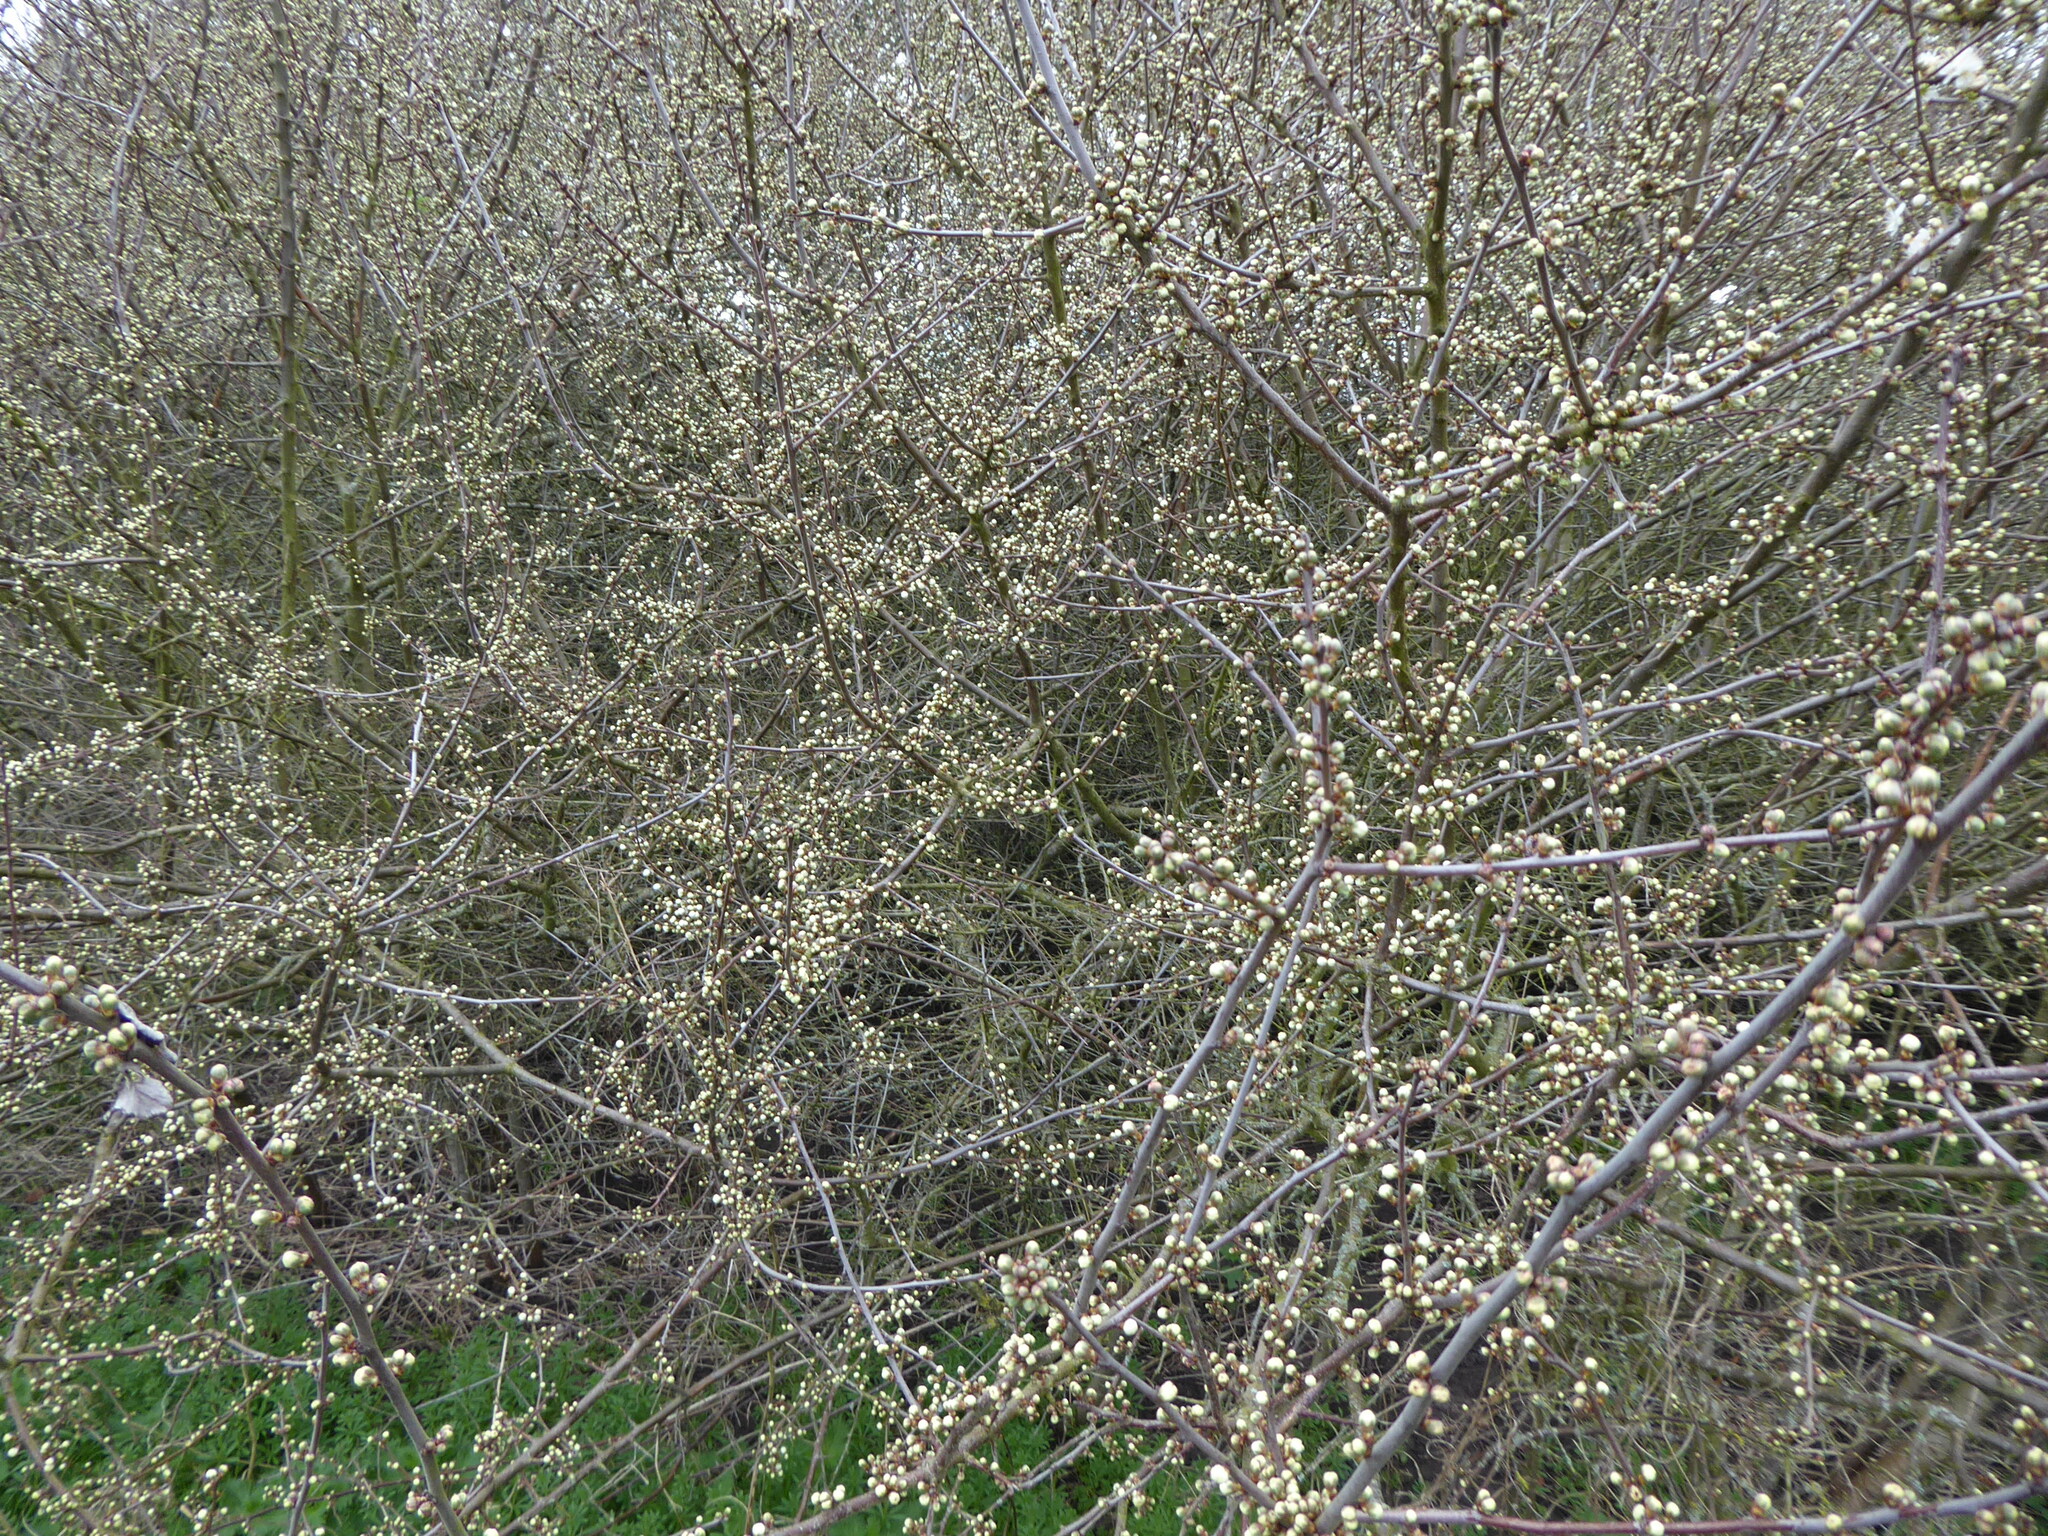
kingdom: Plantae
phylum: Tracheophyta
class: Magnoliopsida
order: Rosales
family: Rosaceae
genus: Prunus
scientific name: Prunus spinosa
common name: Blackthorn
